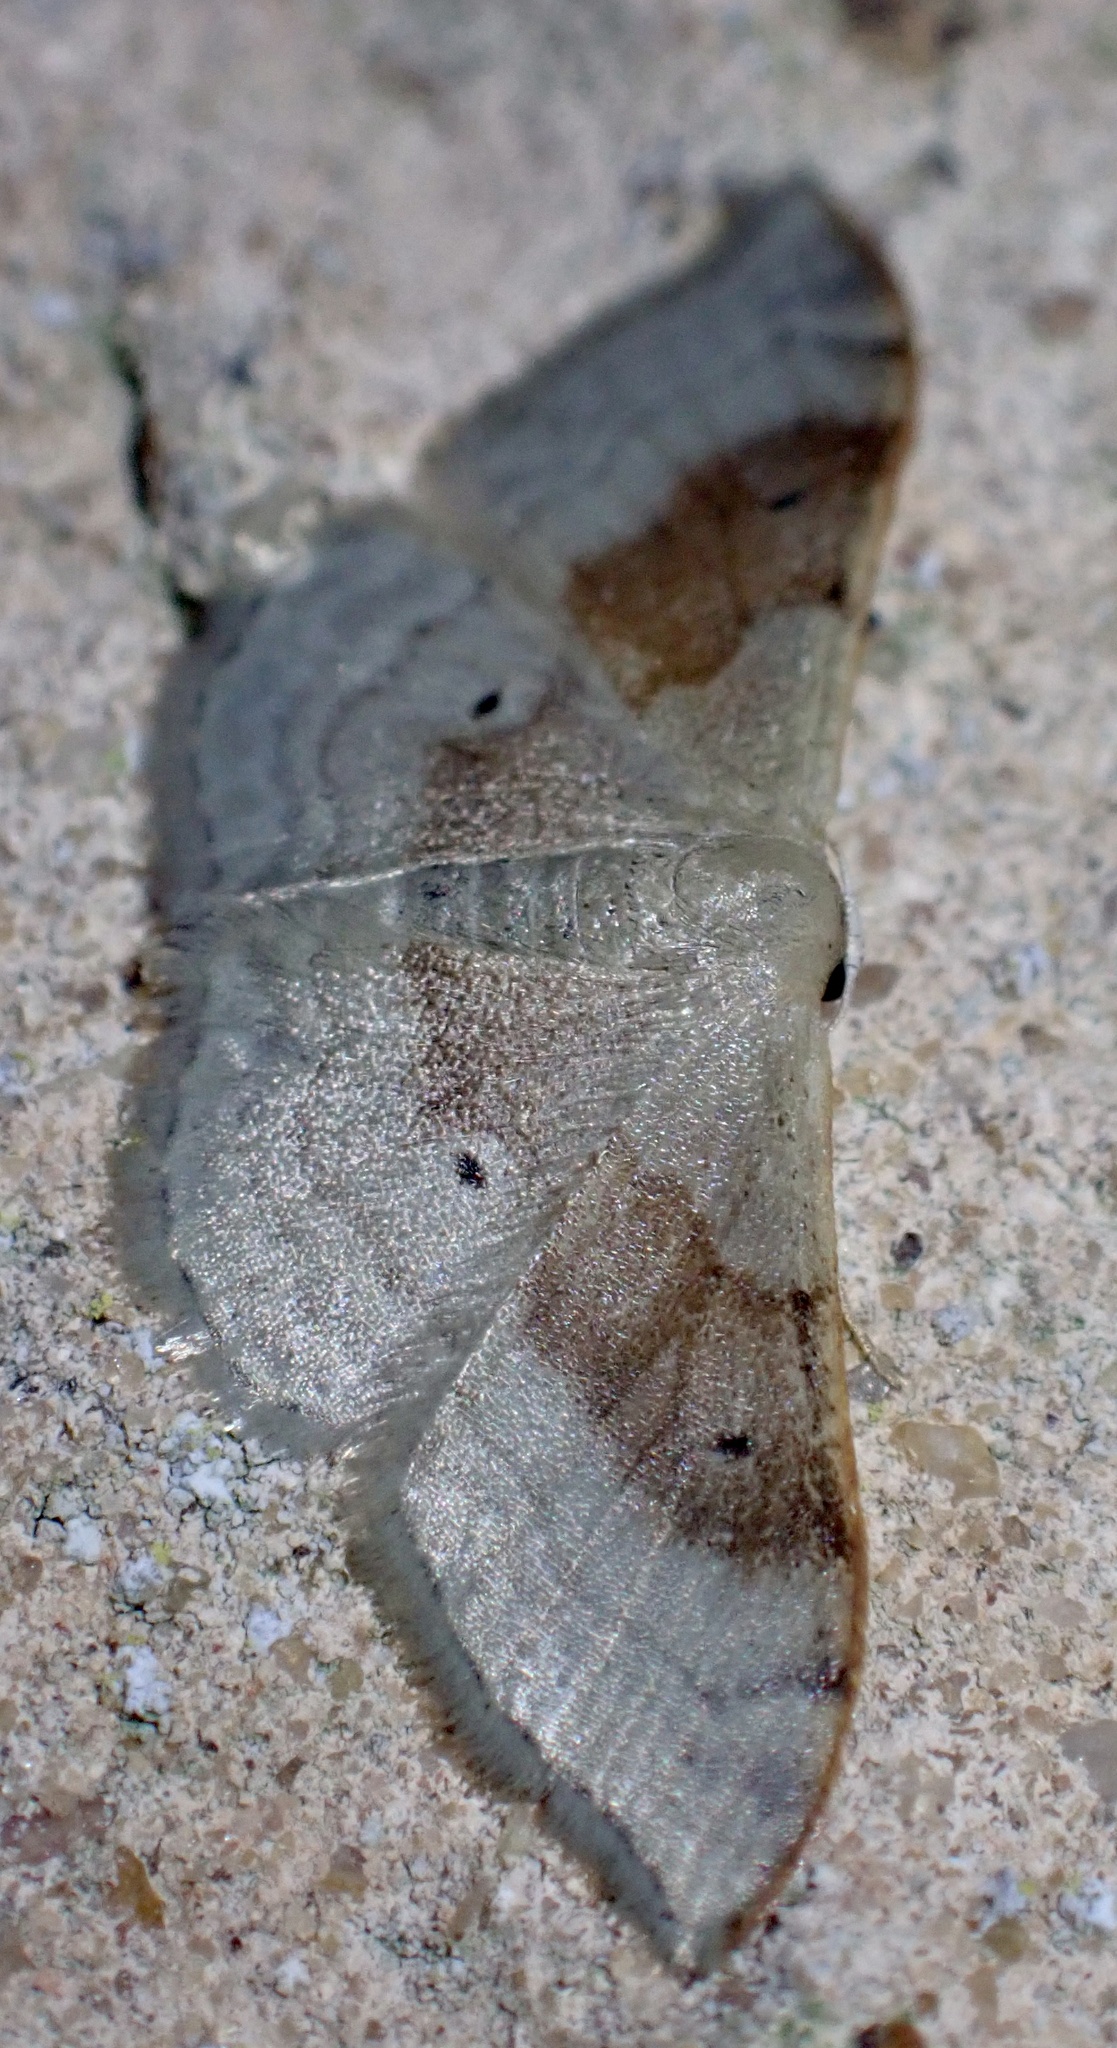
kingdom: Animalia
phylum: Arthropoda
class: Insecta
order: Lepidoptera
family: Geometridae
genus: Idaea
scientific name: Idaea degeneraria
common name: Portland ribbon wave
